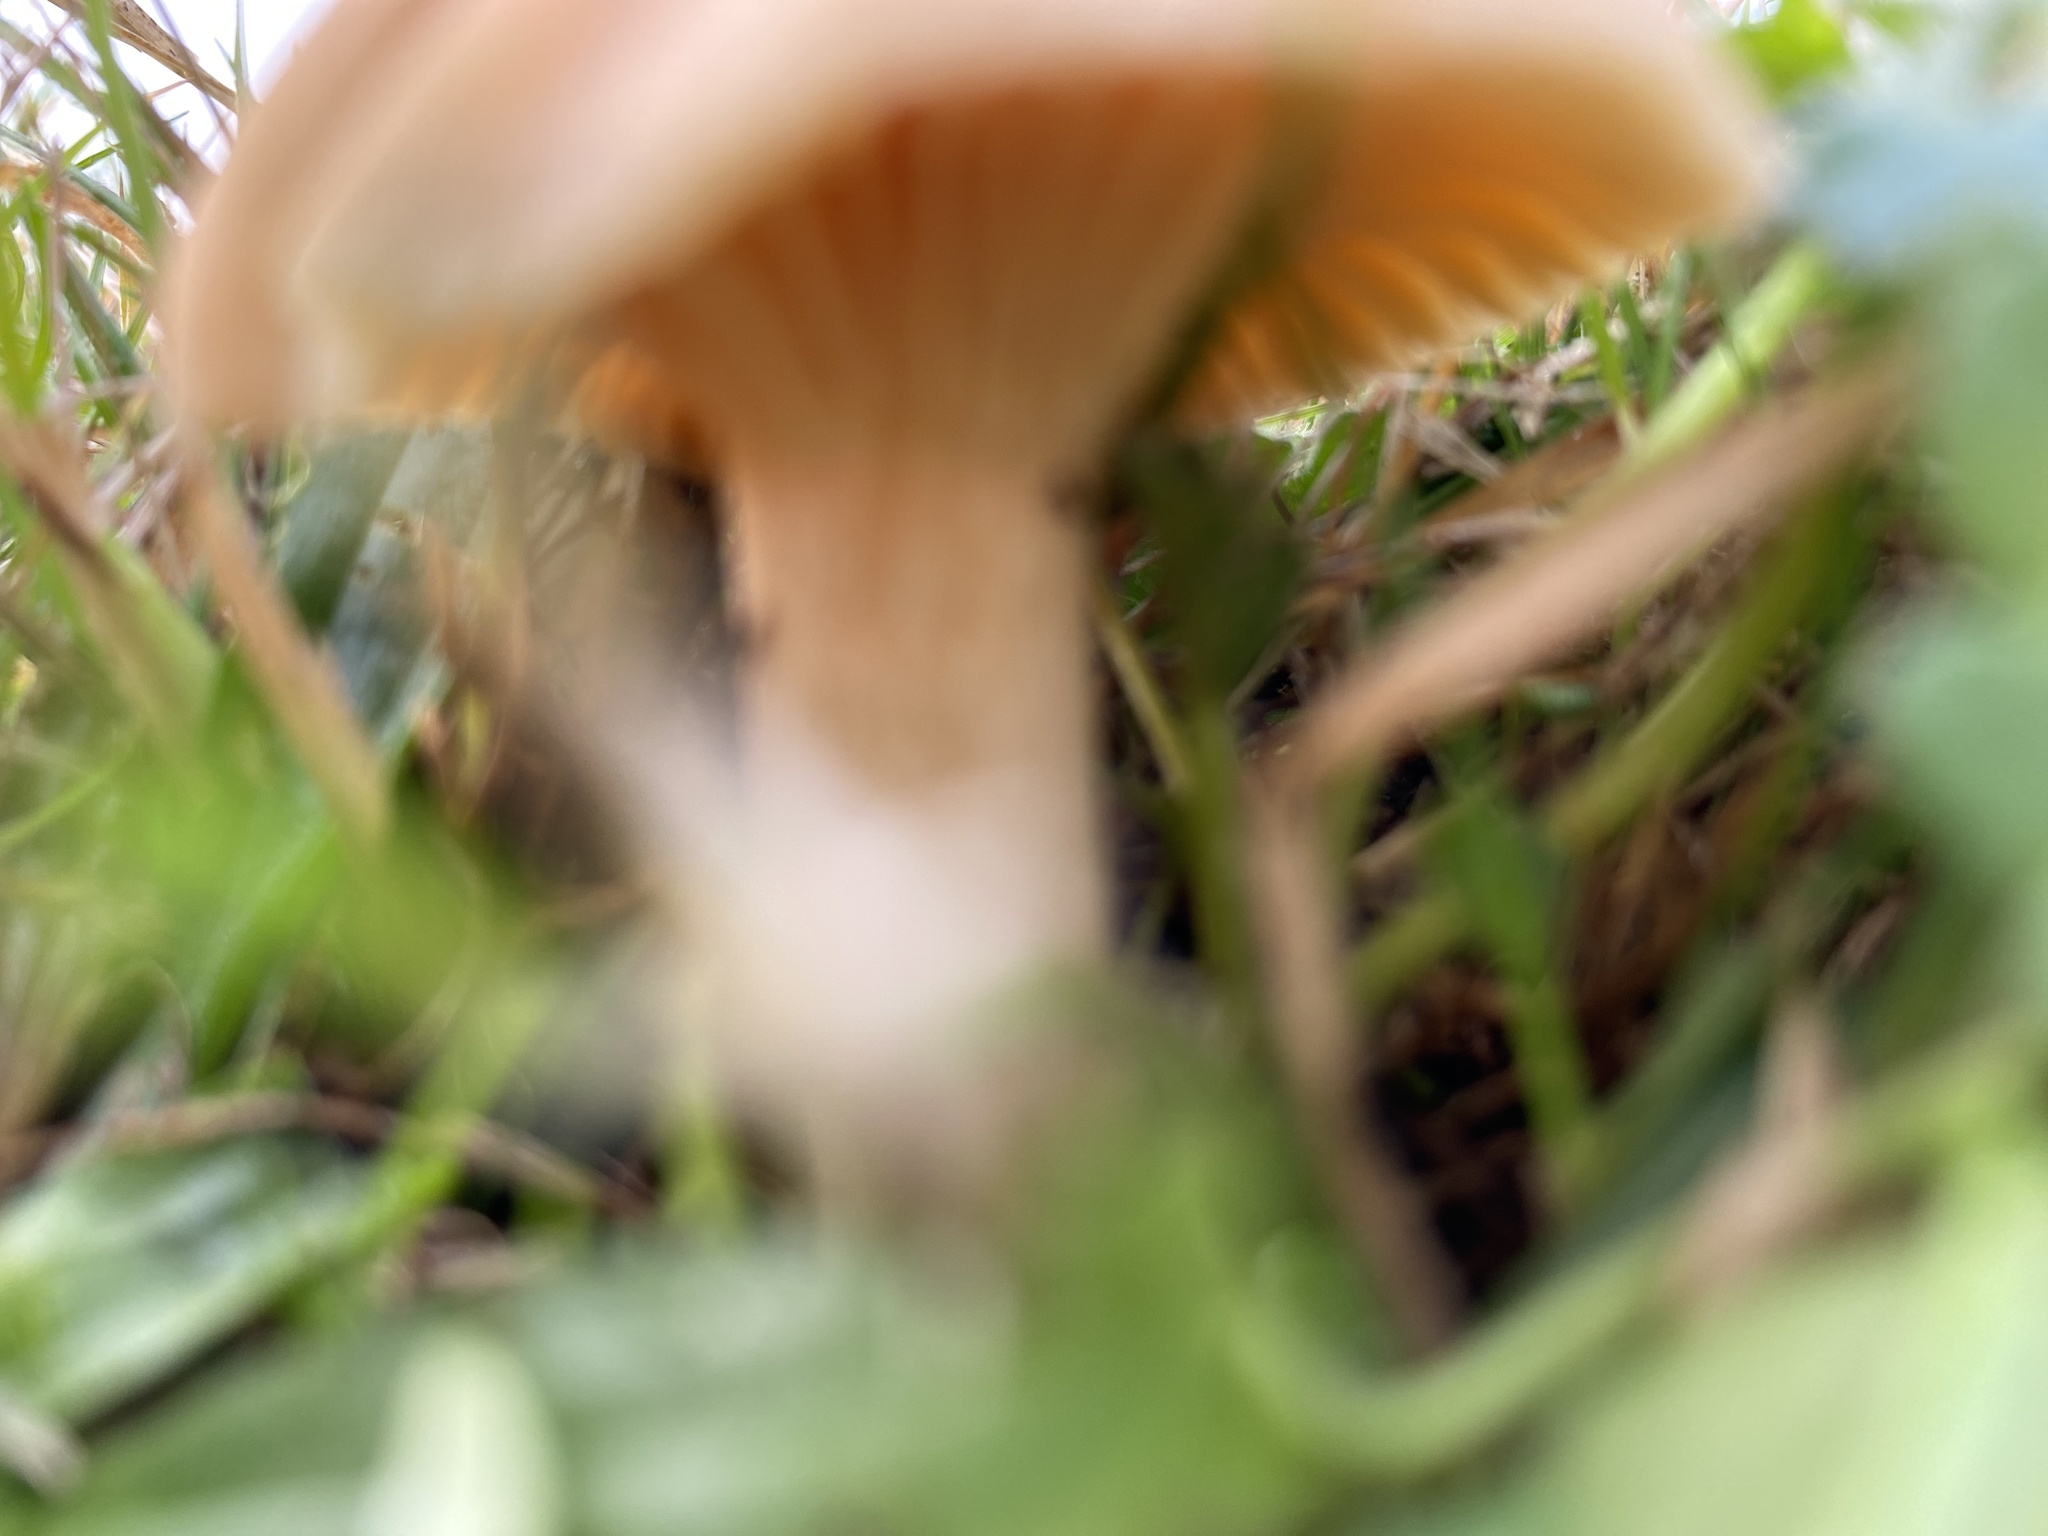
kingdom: Fungi
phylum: Basidiomycota
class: Agaricomycetes
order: Agaricales
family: Hygrophoraceae
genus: Cuphophyllus
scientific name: Cuphophyllus pratensis
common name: Meadow waxcap
